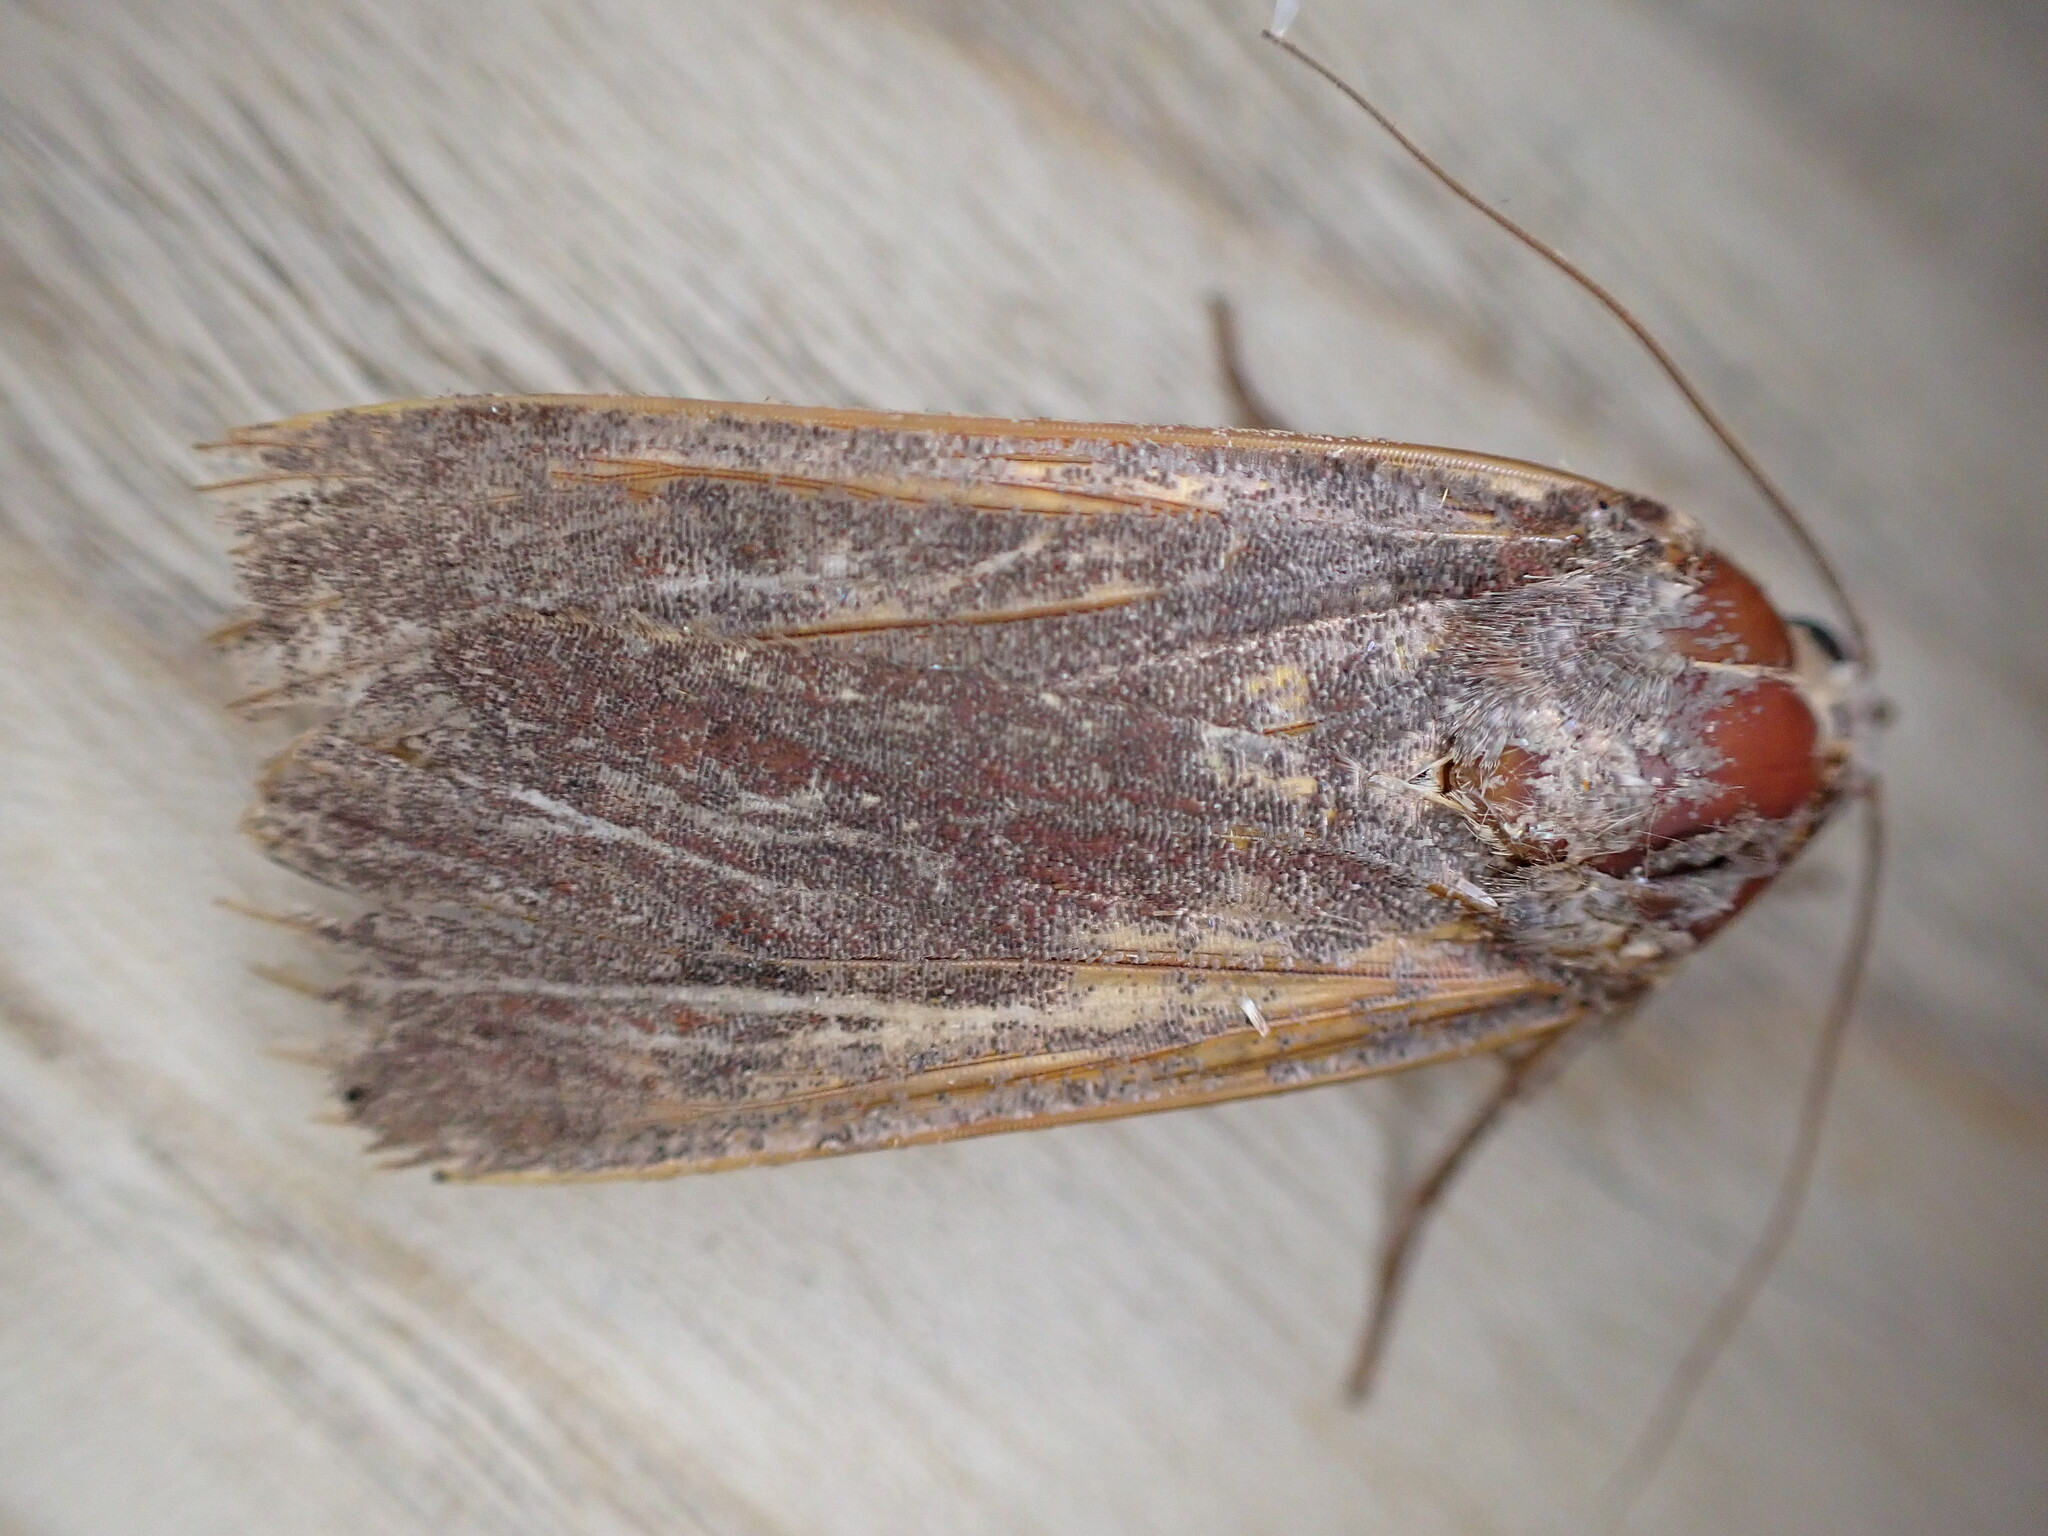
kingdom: Animalia
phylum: Arthropoda
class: Insecta
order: Lepidoptera
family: Noctuidae
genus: Noctua
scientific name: Noctua pronuba
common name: Large yellow underwing
